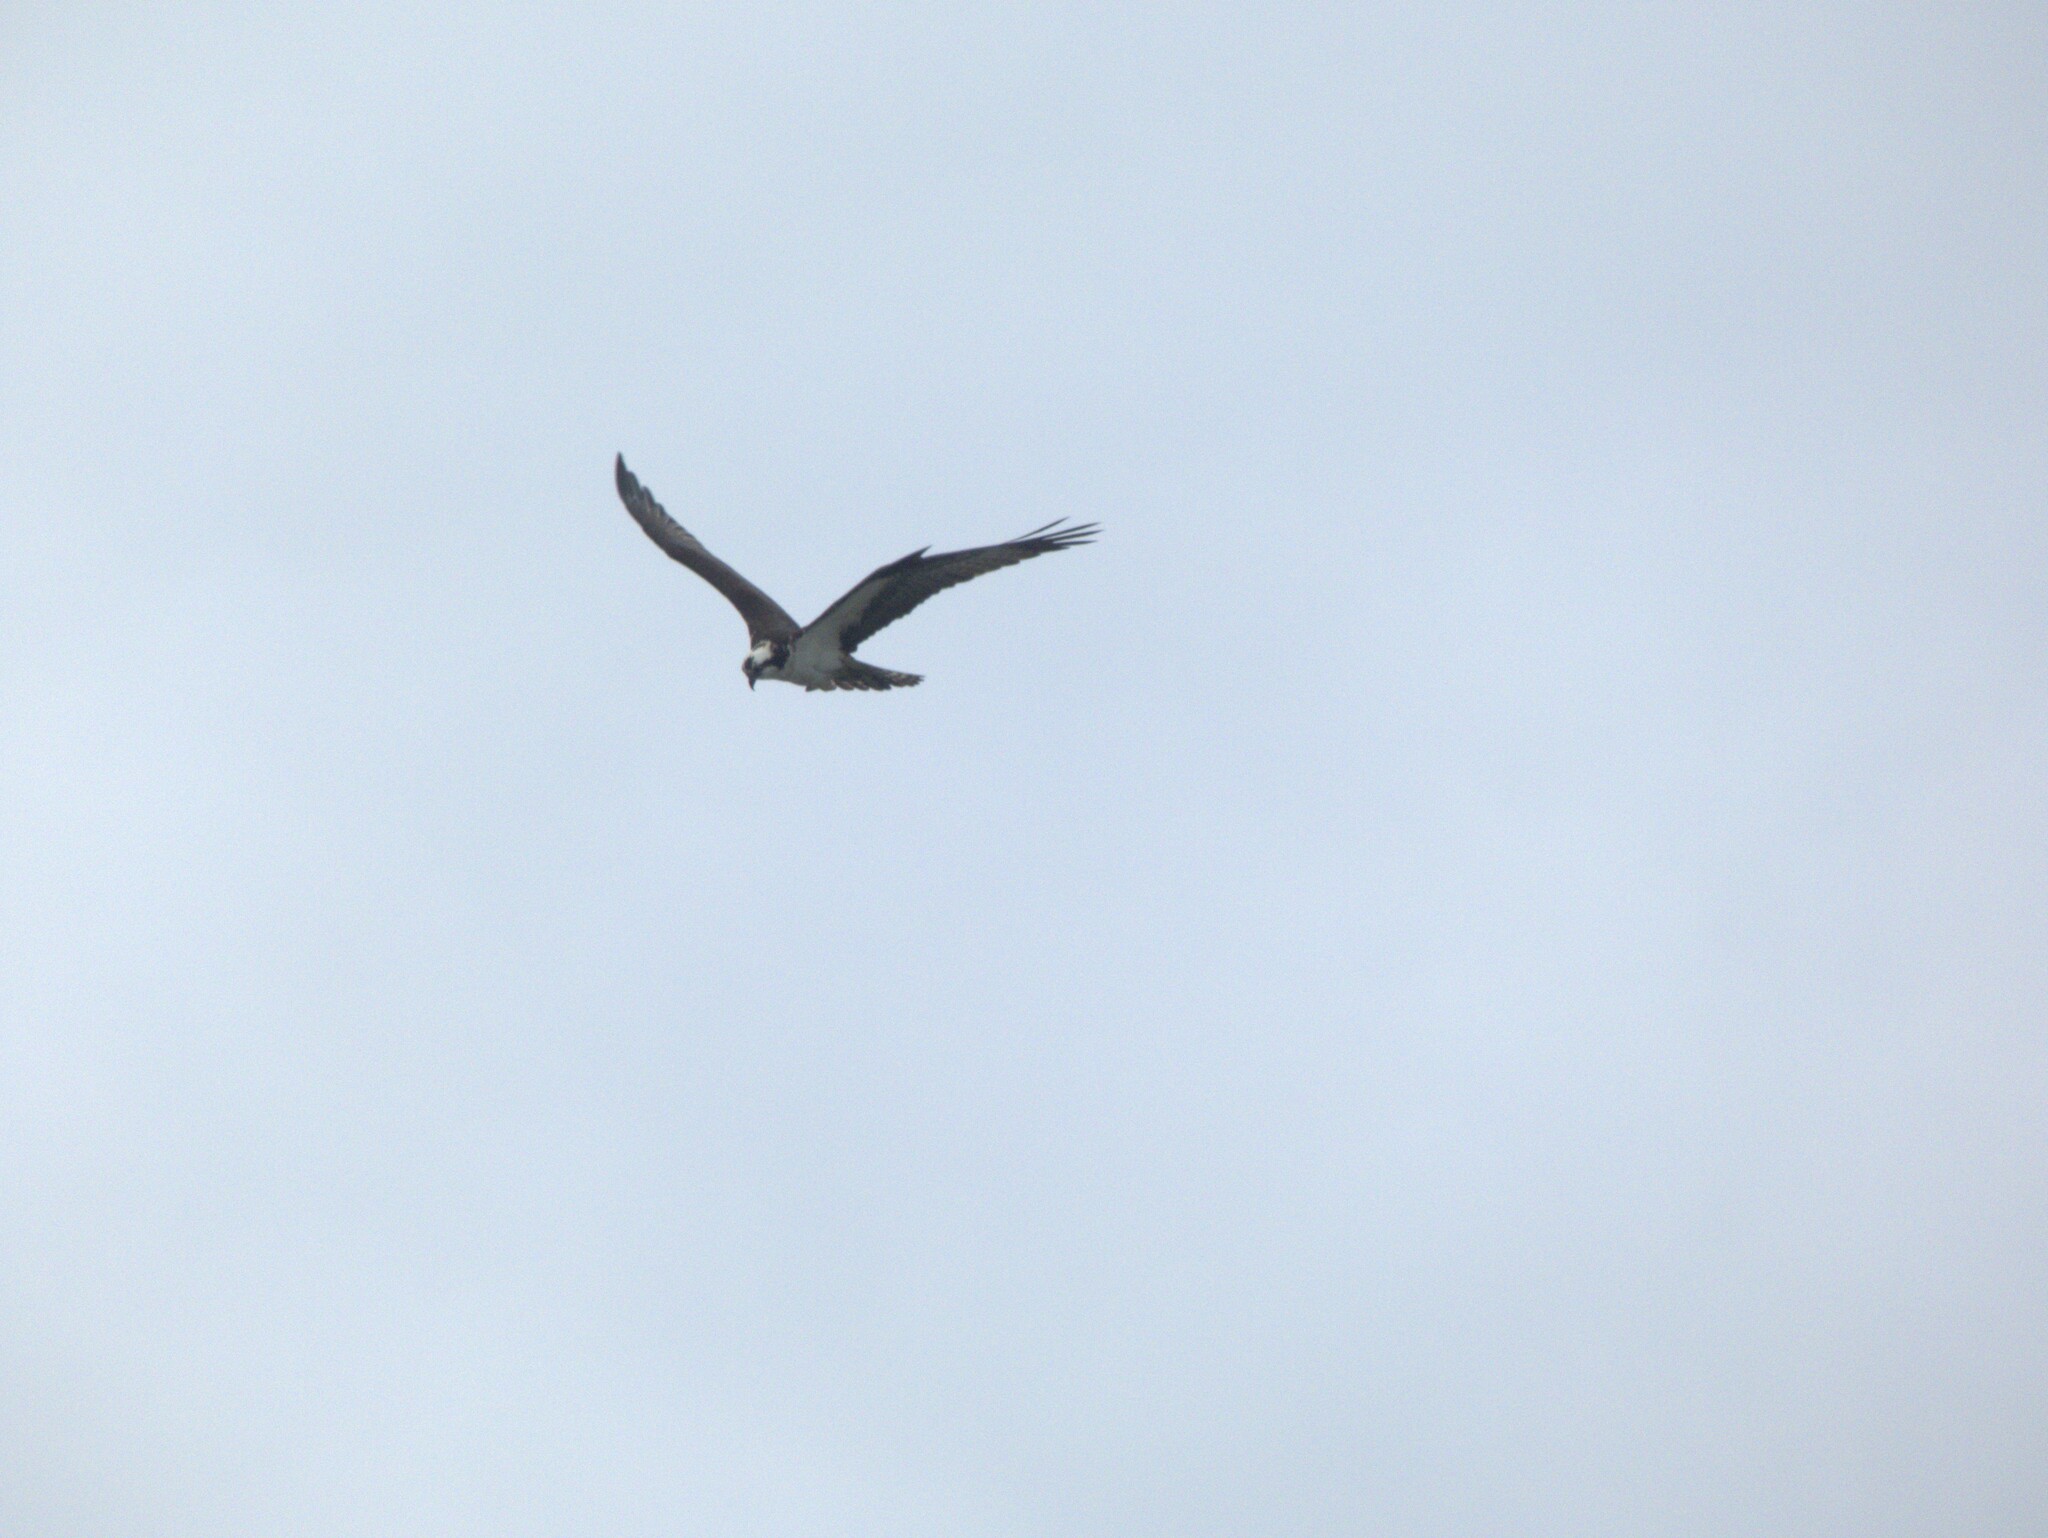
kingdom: Animalia
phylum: Chordata
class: Aves
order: Accipitriformes
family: Pandionidae
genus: Pandion
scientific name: Pandion haliaetus
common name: Osprey
